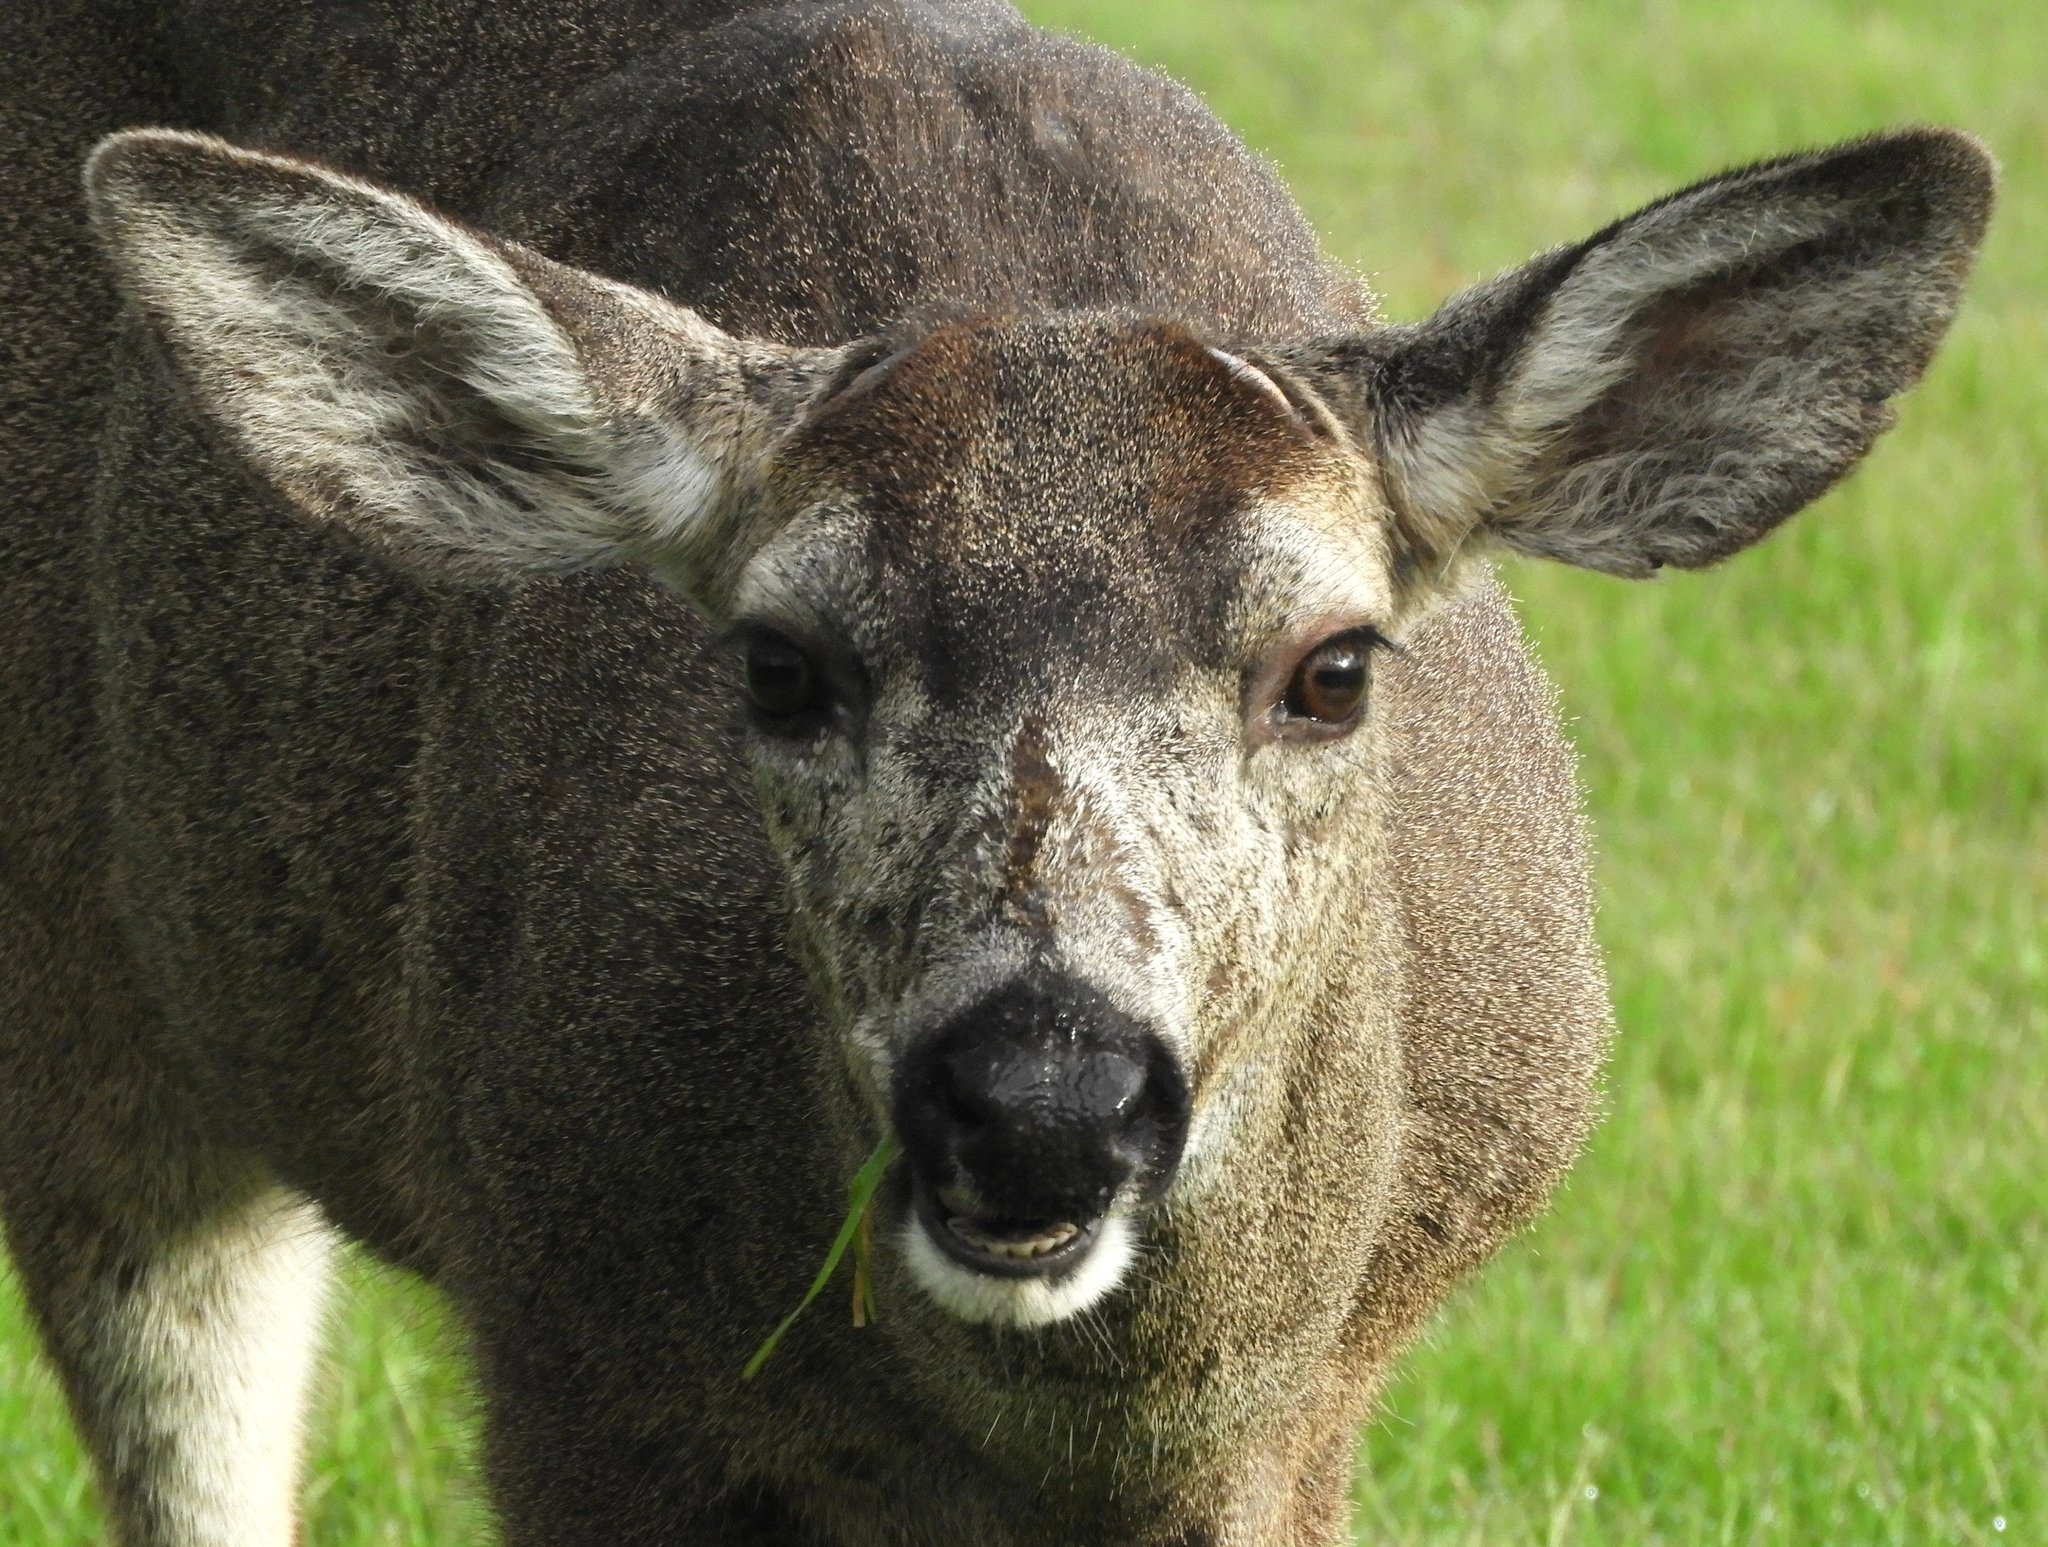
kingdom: Animalia
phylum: Chordata
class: Mammalia
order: Artiodactyla
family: Cervidae
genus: Odocoileus
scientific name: Odocoileus hemionus
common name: Mule deer
